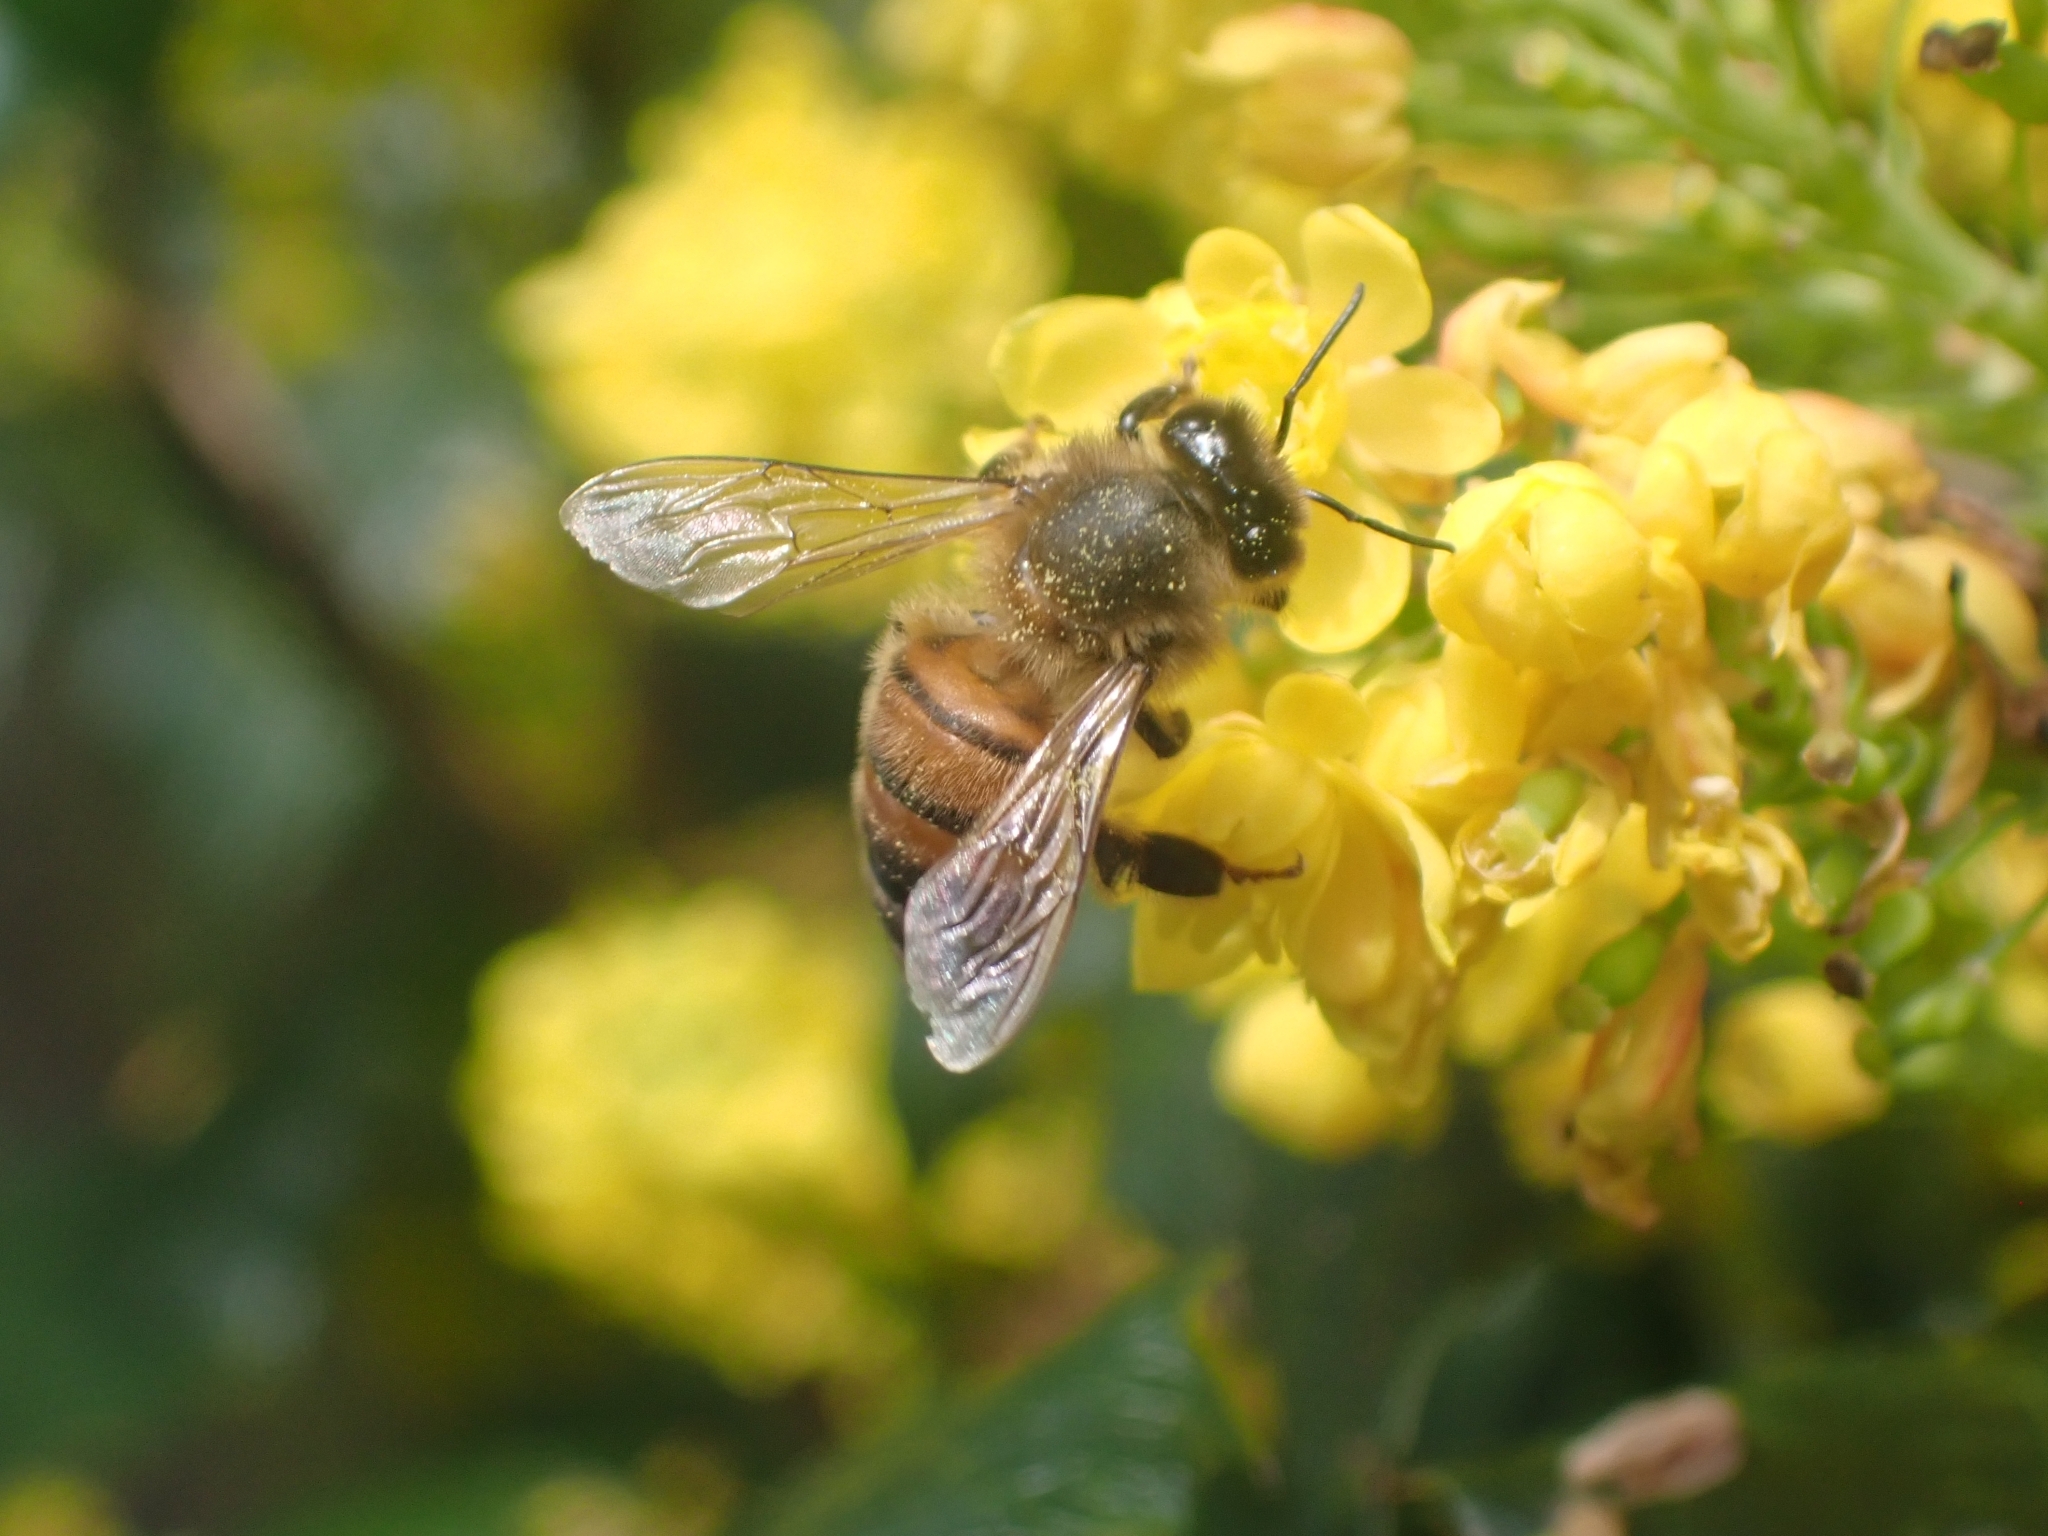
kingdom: Animalia
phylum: Arthropoda
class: Insecta
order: Hymenoptera
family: Apidae
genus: Apis
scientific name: Apis mellifera
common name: Honey bee
